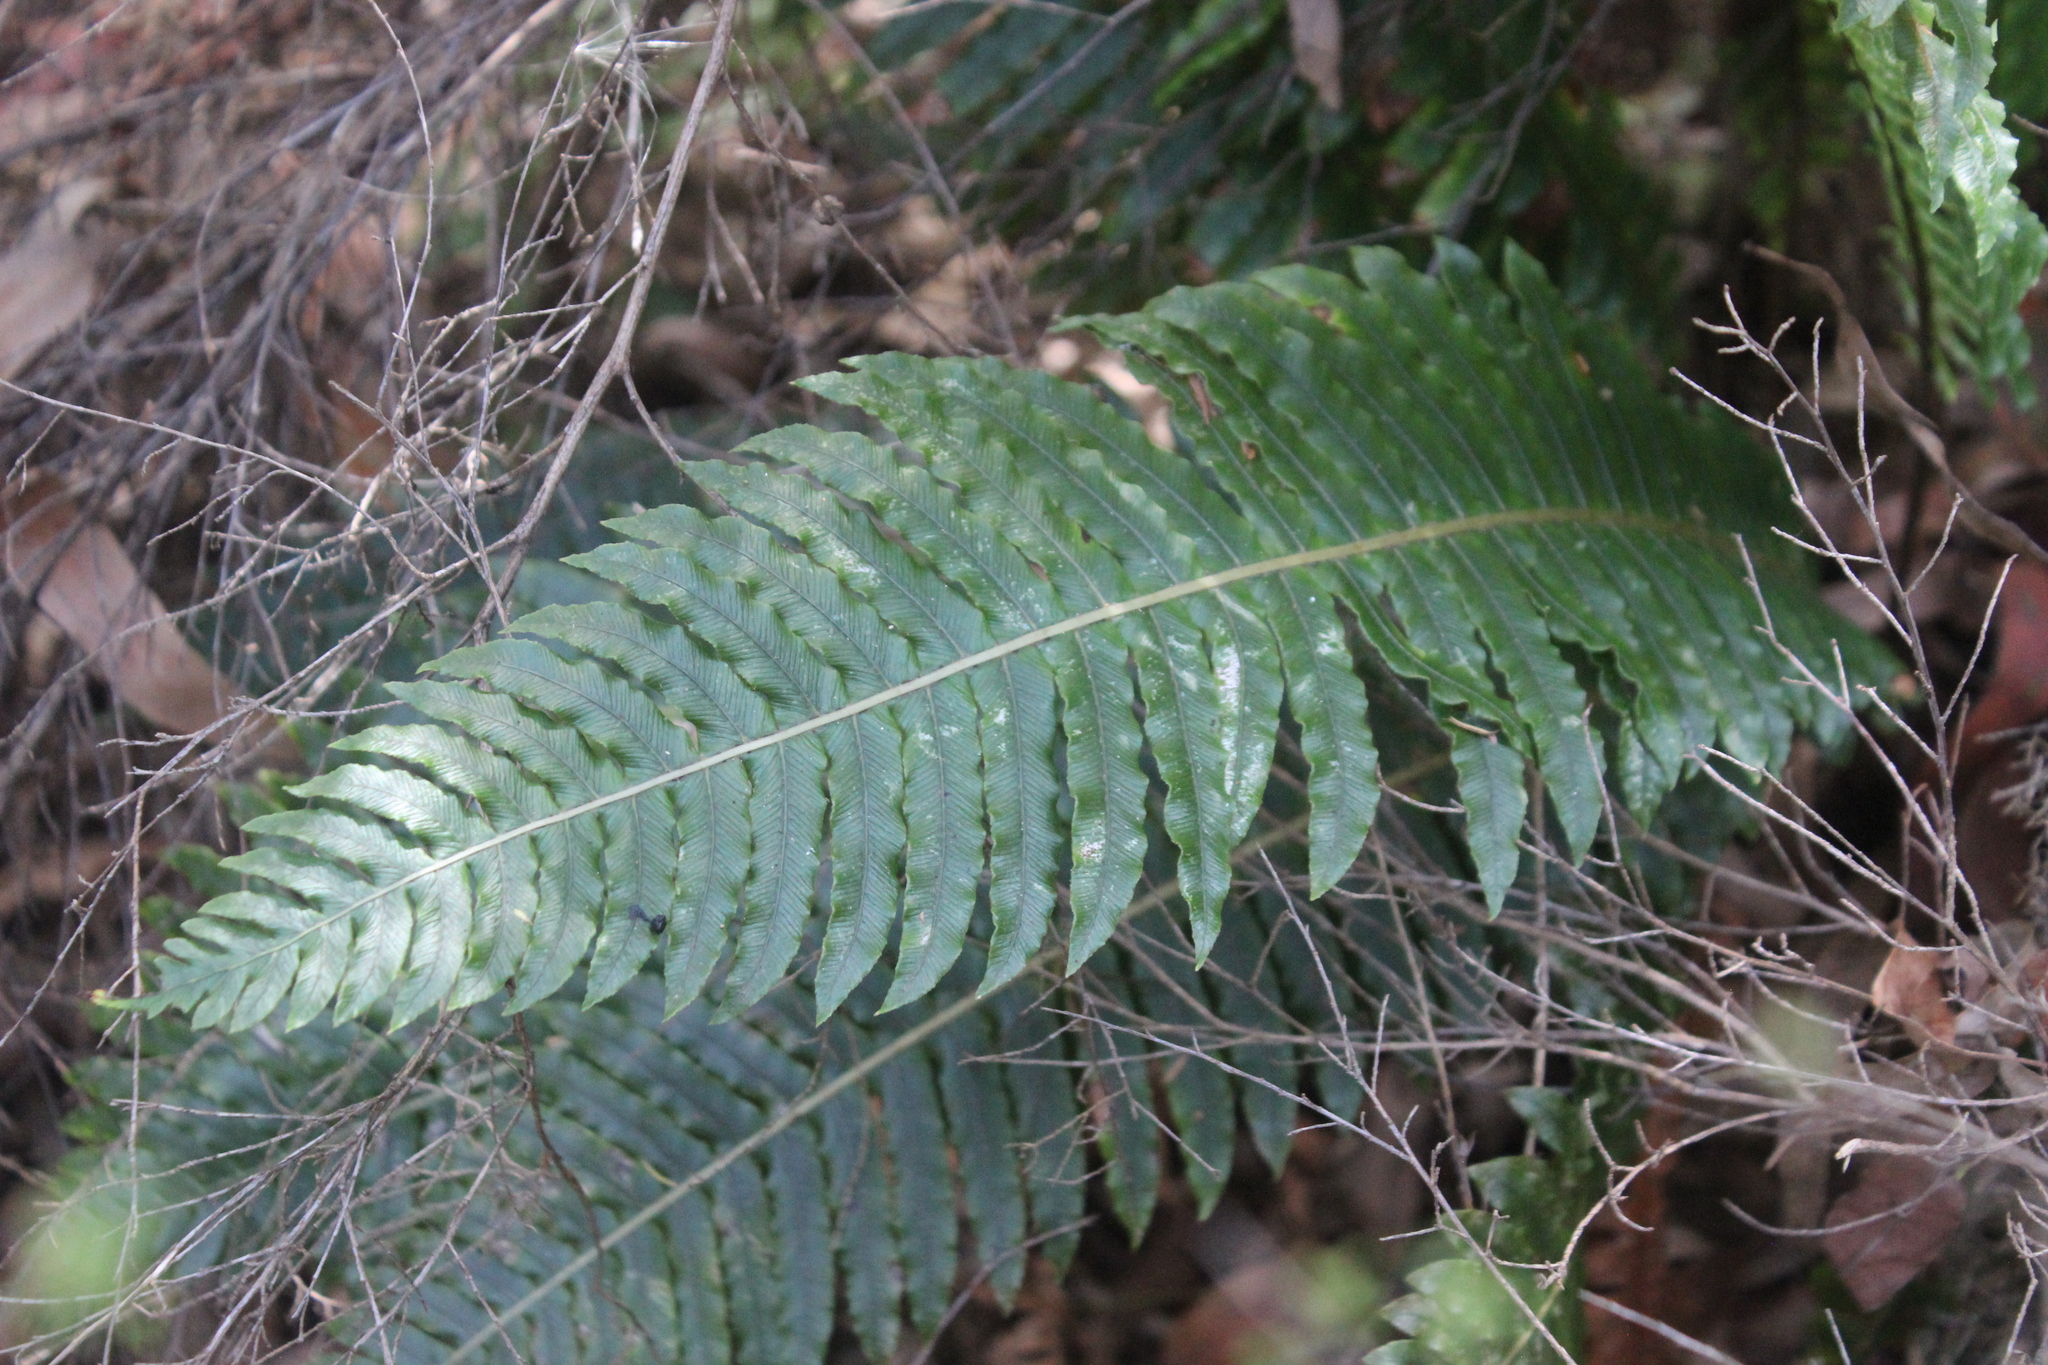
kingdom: Plantae
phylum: Tracheophyta
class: Polypodiopsida
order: Polypodiales
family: Blechnaceae
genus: Lomaria
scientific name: Lomaria discolor
